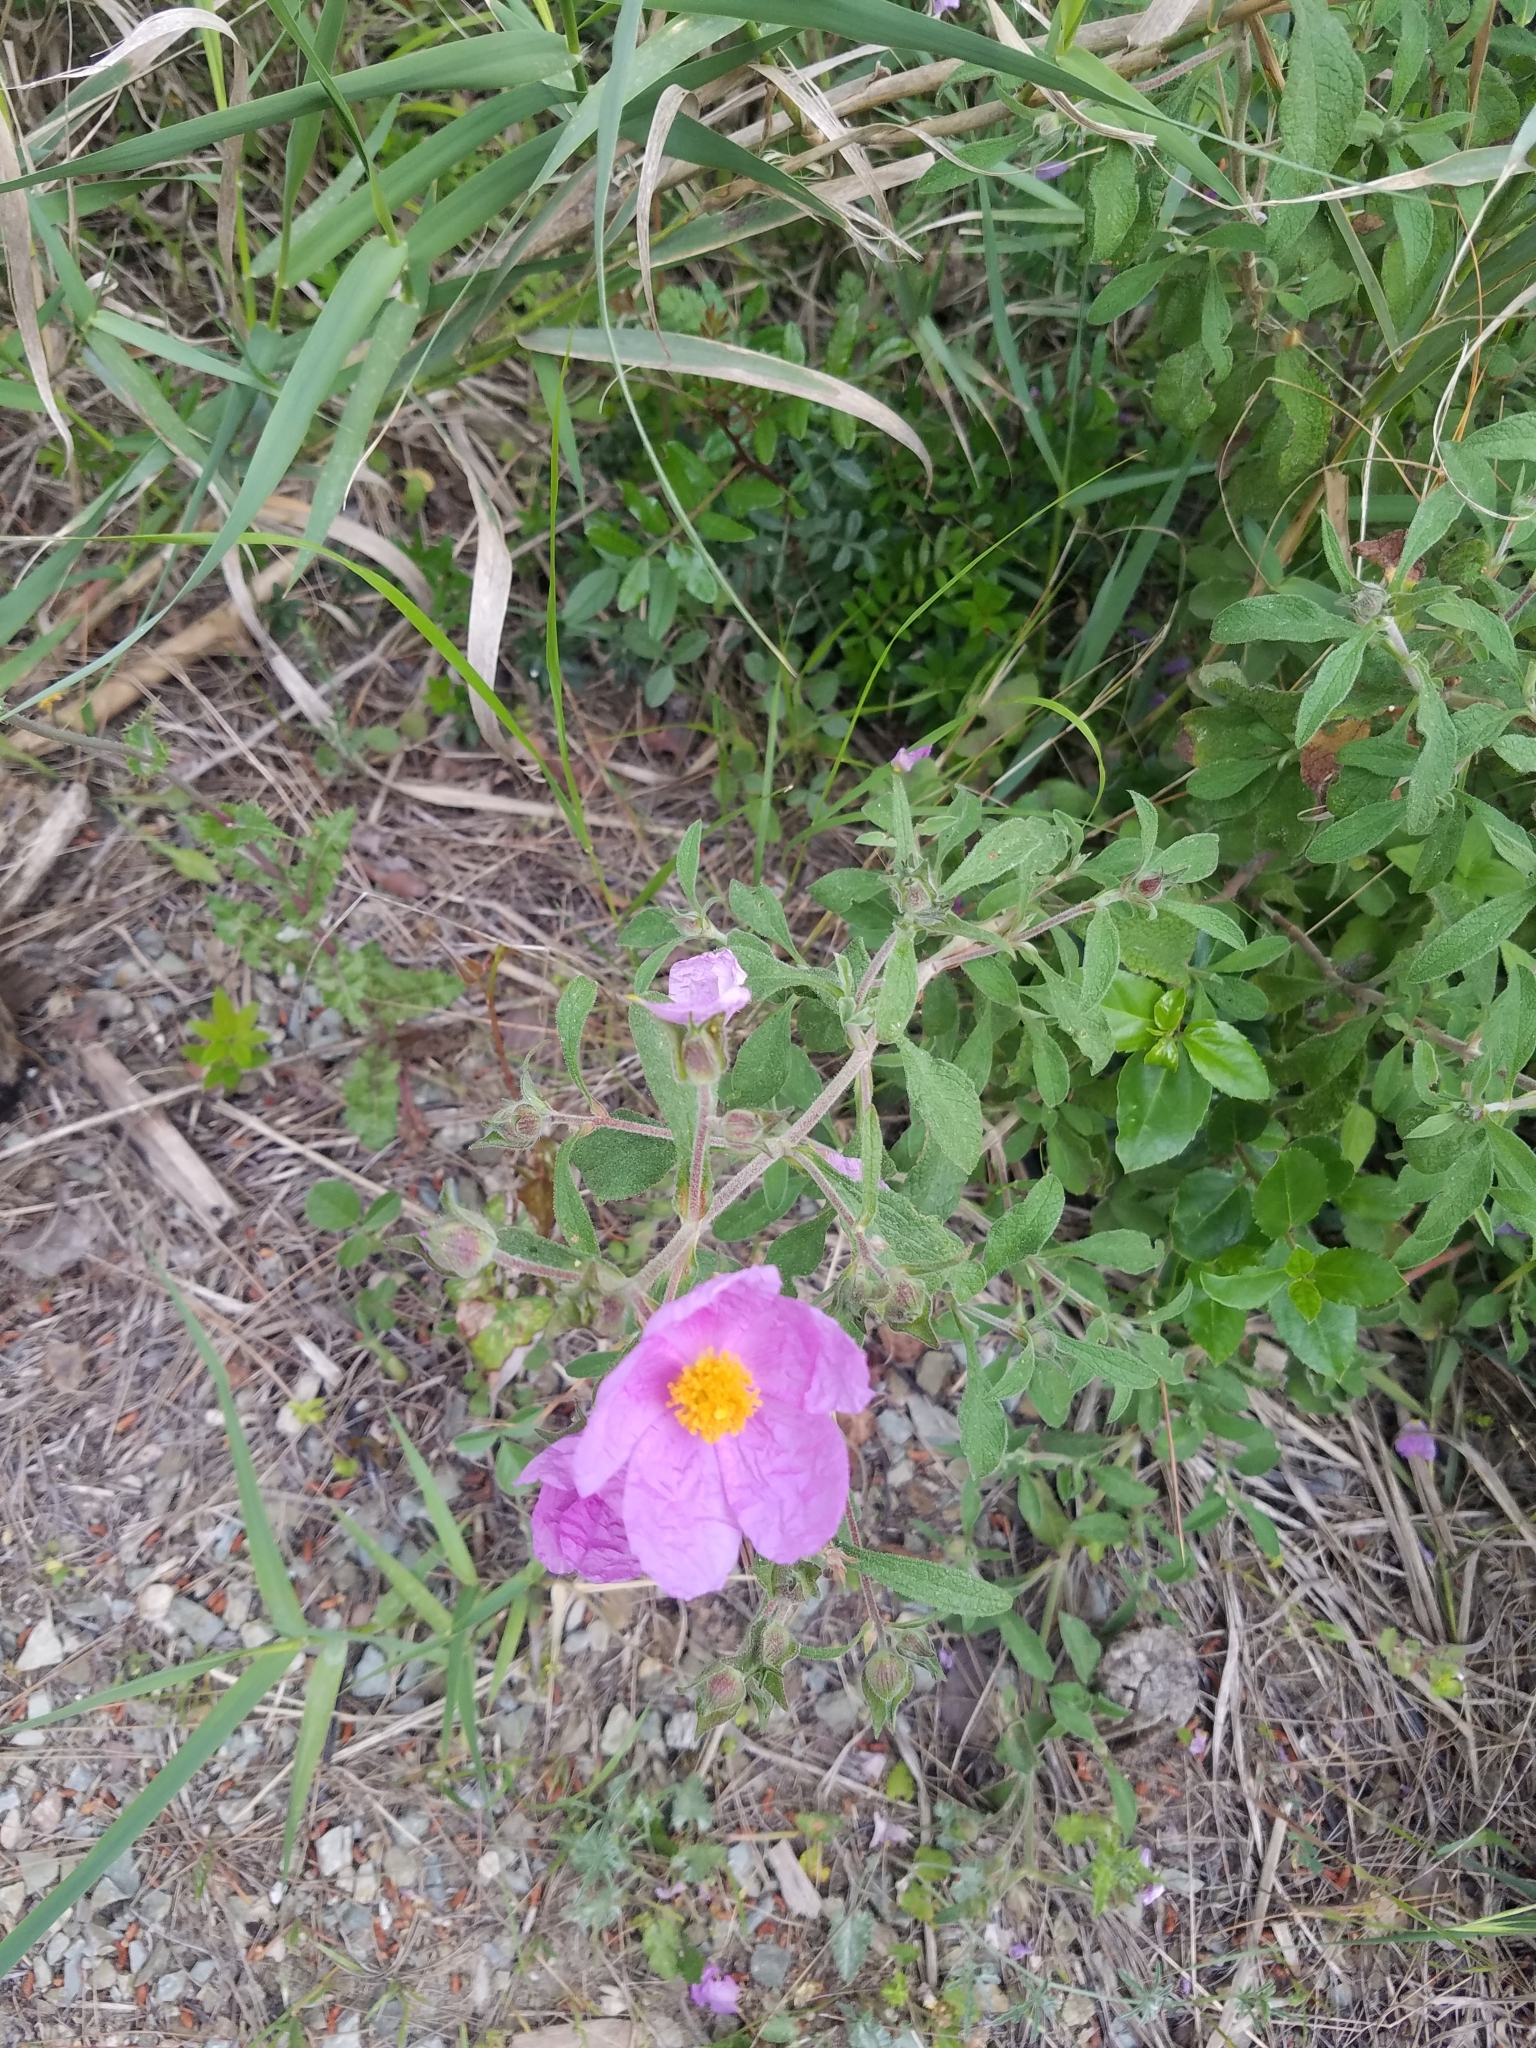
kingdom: Plantae
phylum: Tracheophyta
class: Magnoliopsida
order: Malvales
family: Cistaceae
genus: Cistus
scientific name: Cistus creticus
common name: Cretan rockrose
